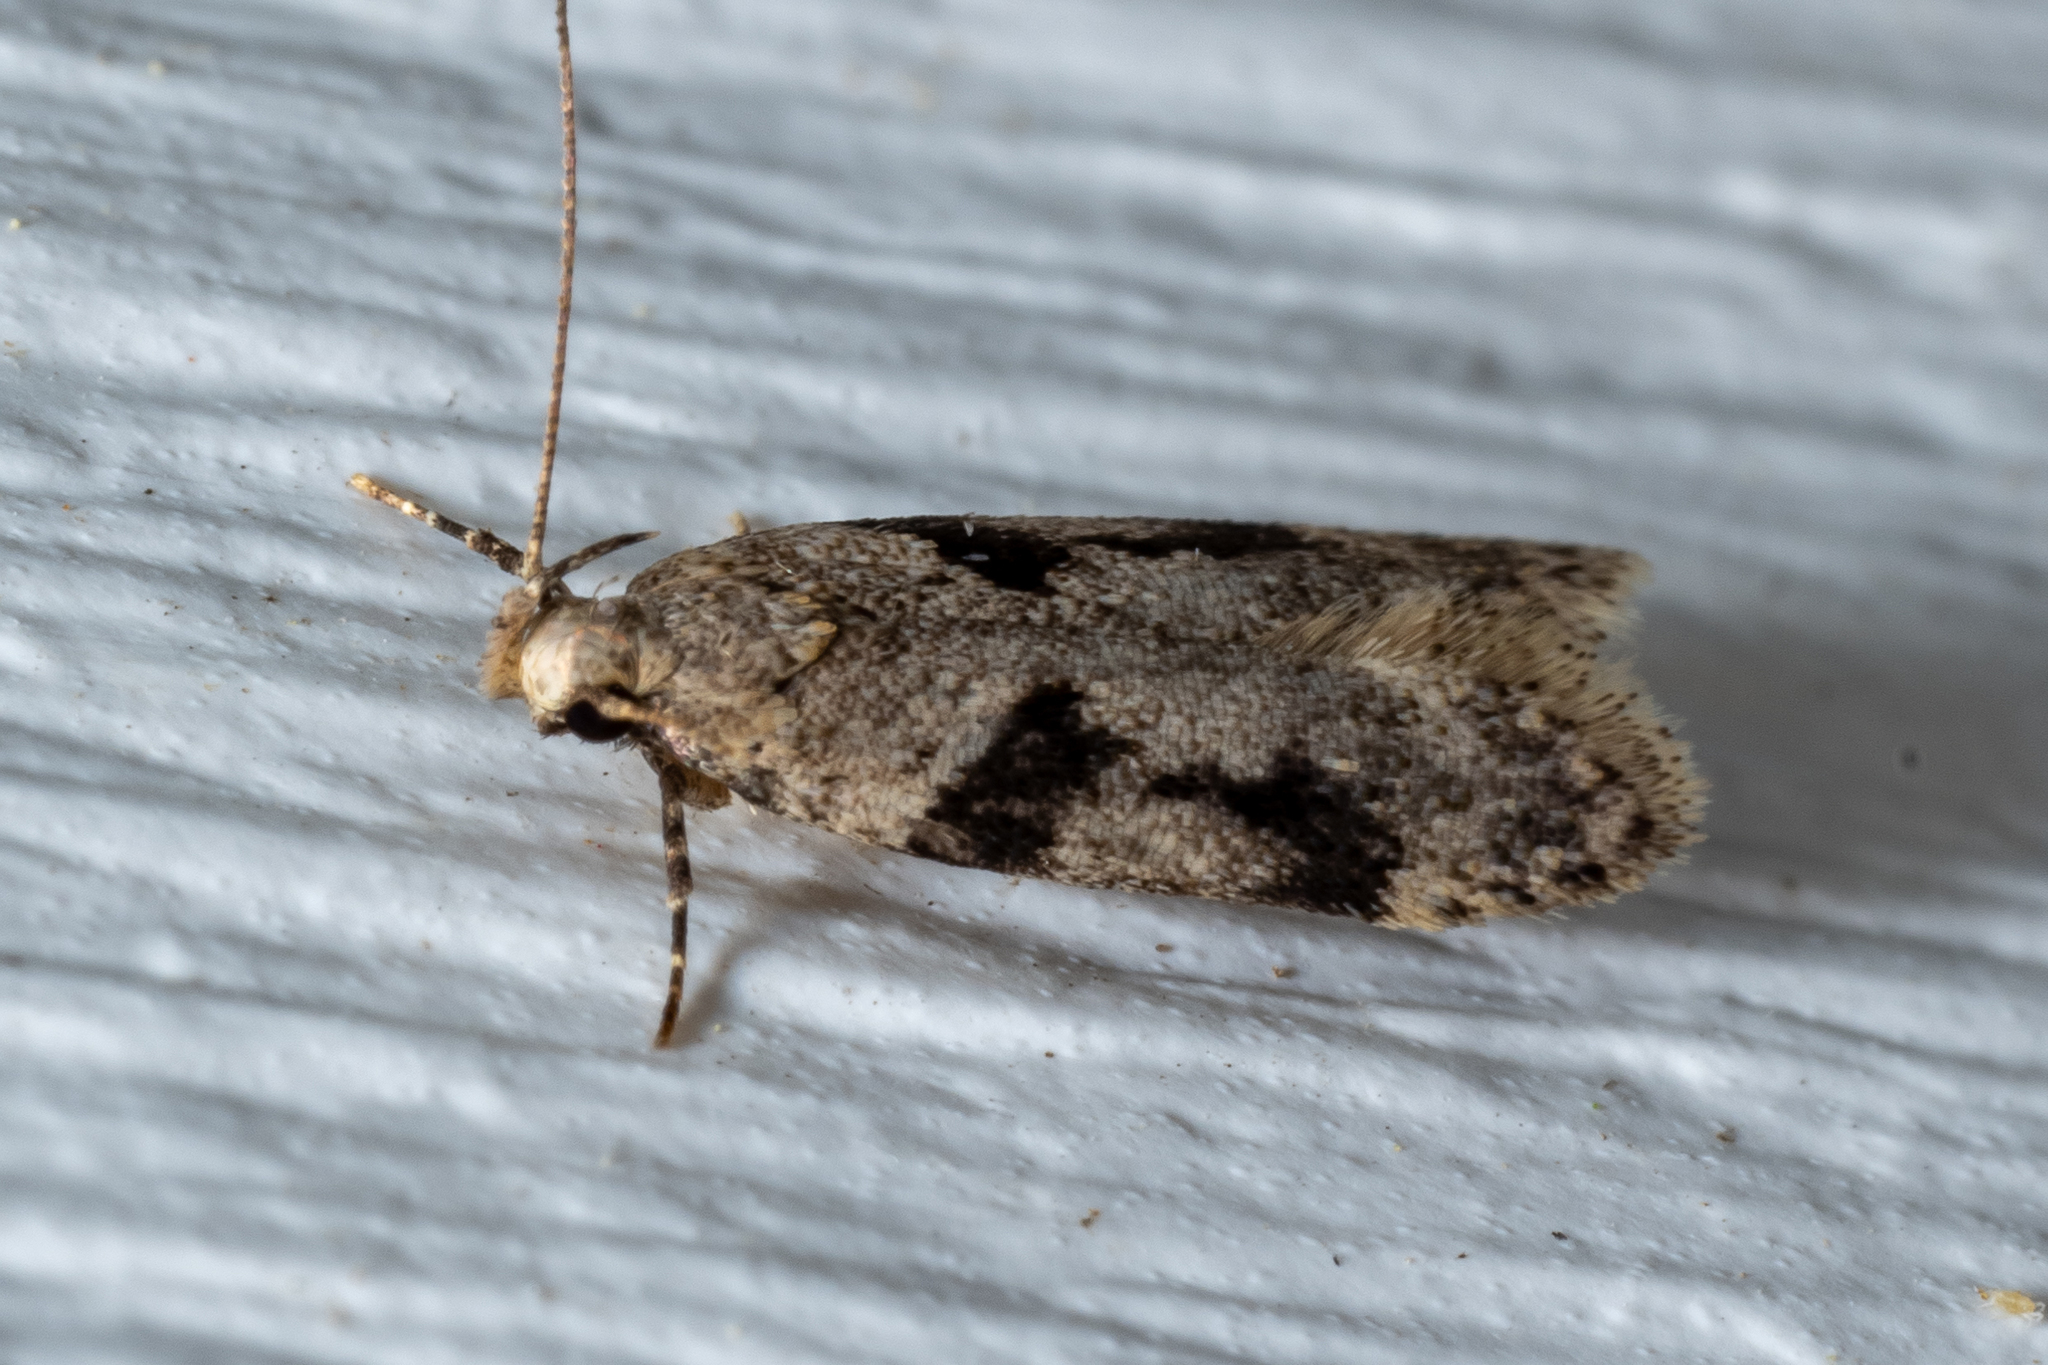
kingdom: Animalia
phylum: Arthropoda
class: Insecta
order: Lepidoptera
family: Gelechiidae
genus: Chionodes
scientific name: Chionodes fondella
